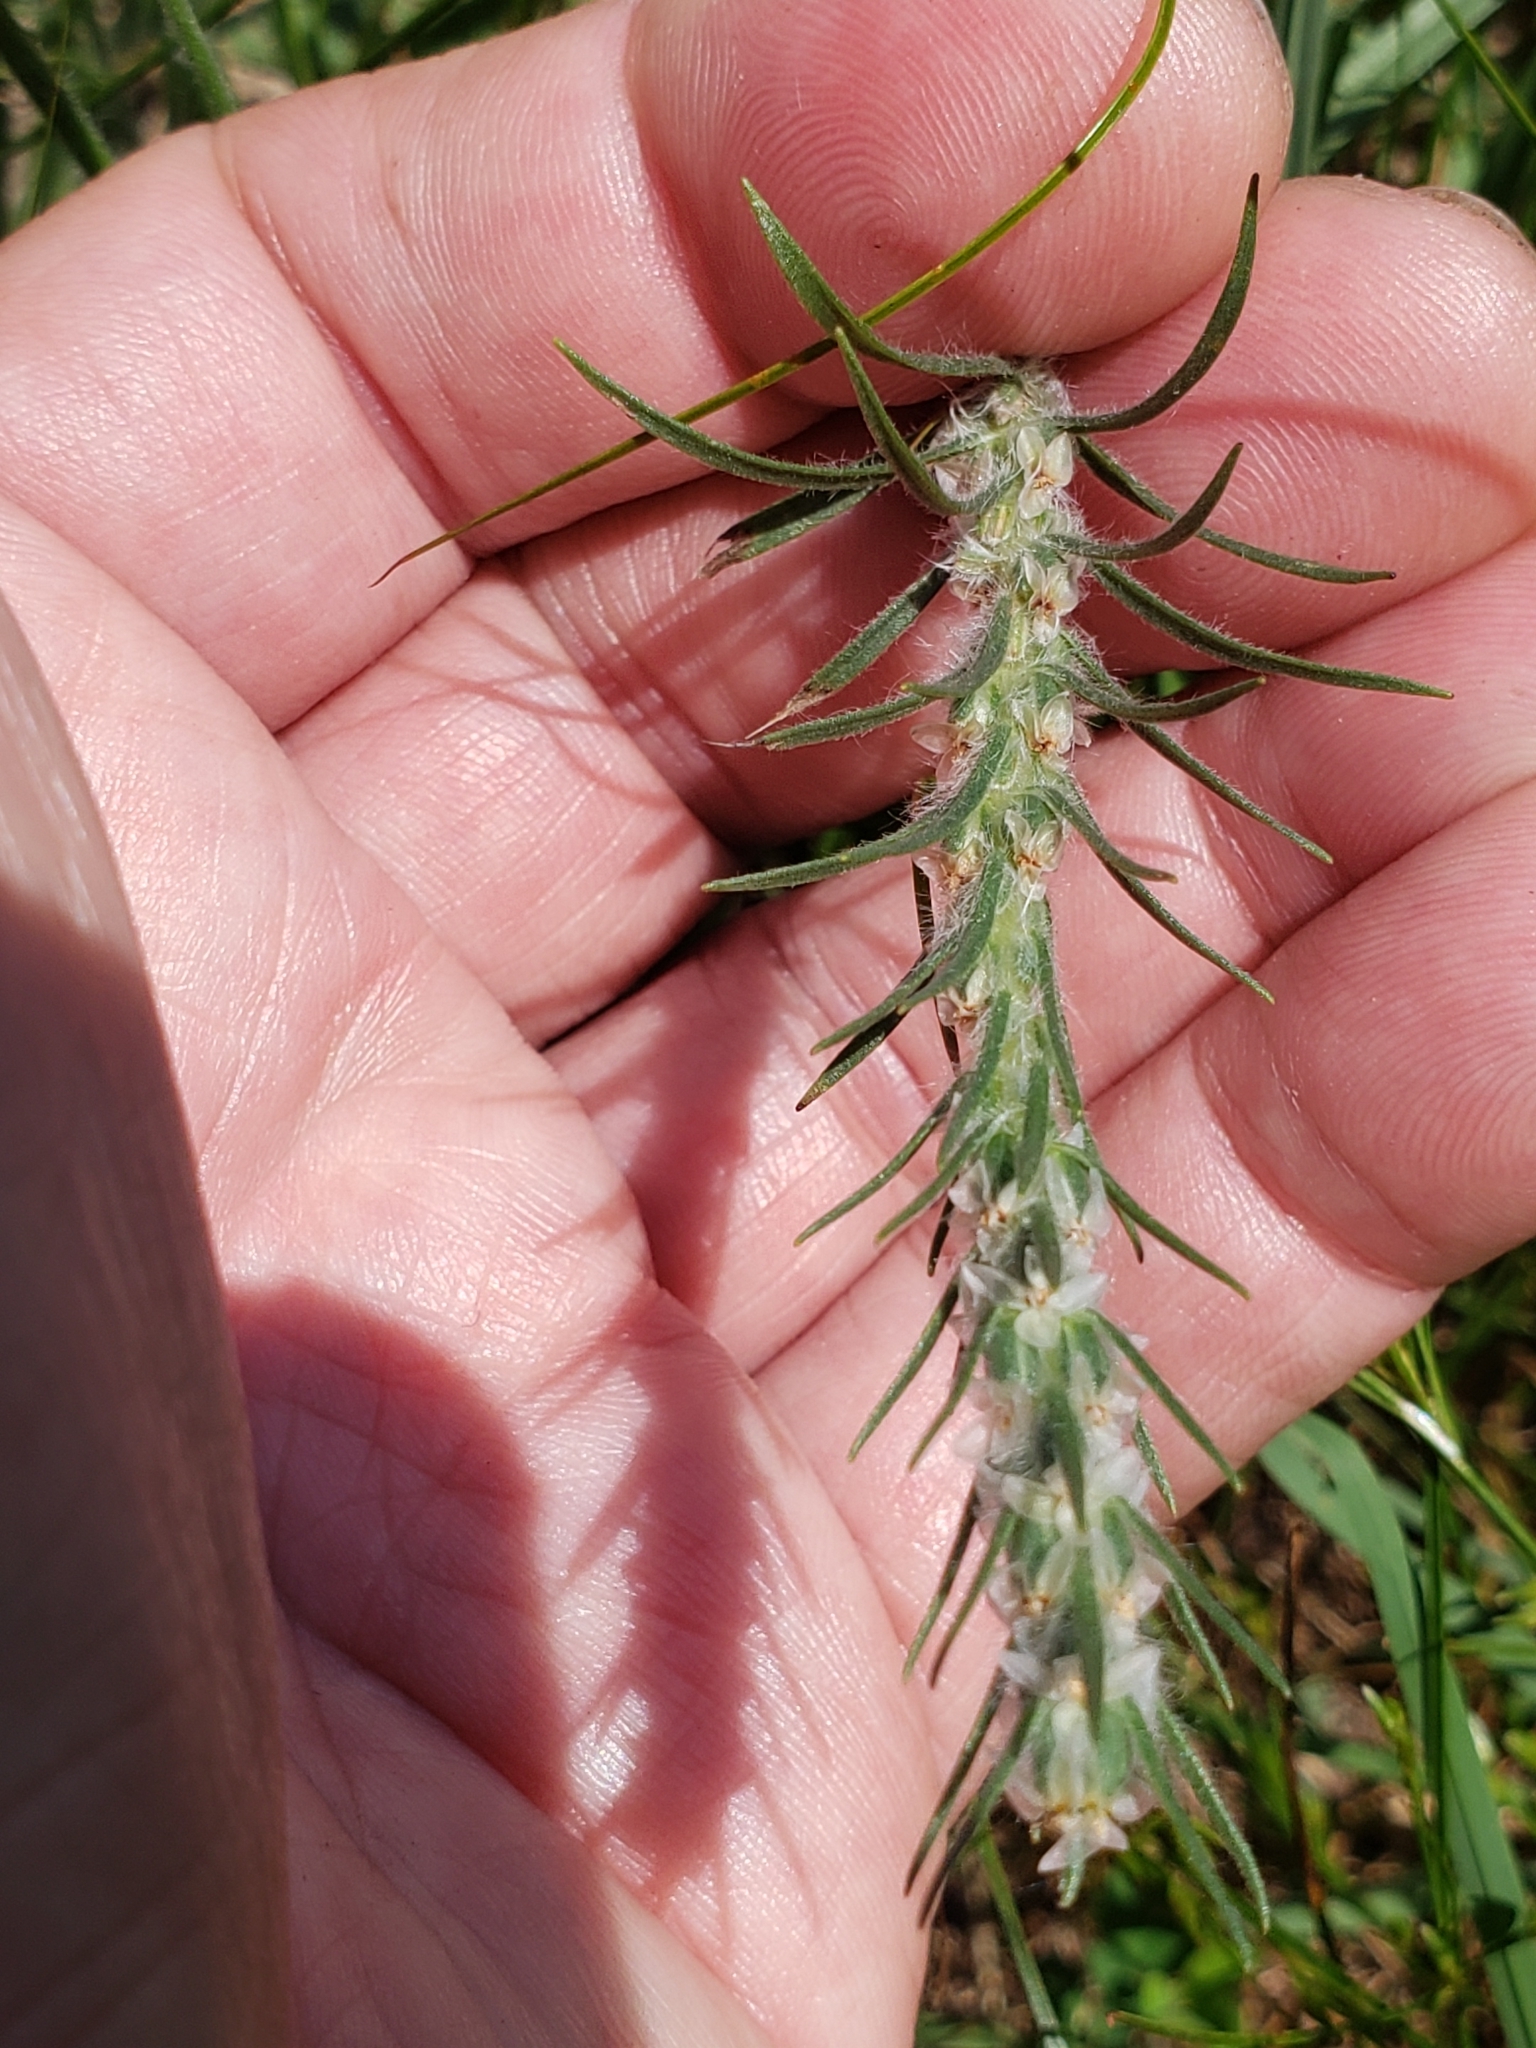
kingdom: Plantae
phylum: Tracheophyta
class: Magnoliopsida
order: Lamiales
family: Plantaginaceae
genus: Plantago
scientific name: Plantago aristata
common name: Bracted plantain
